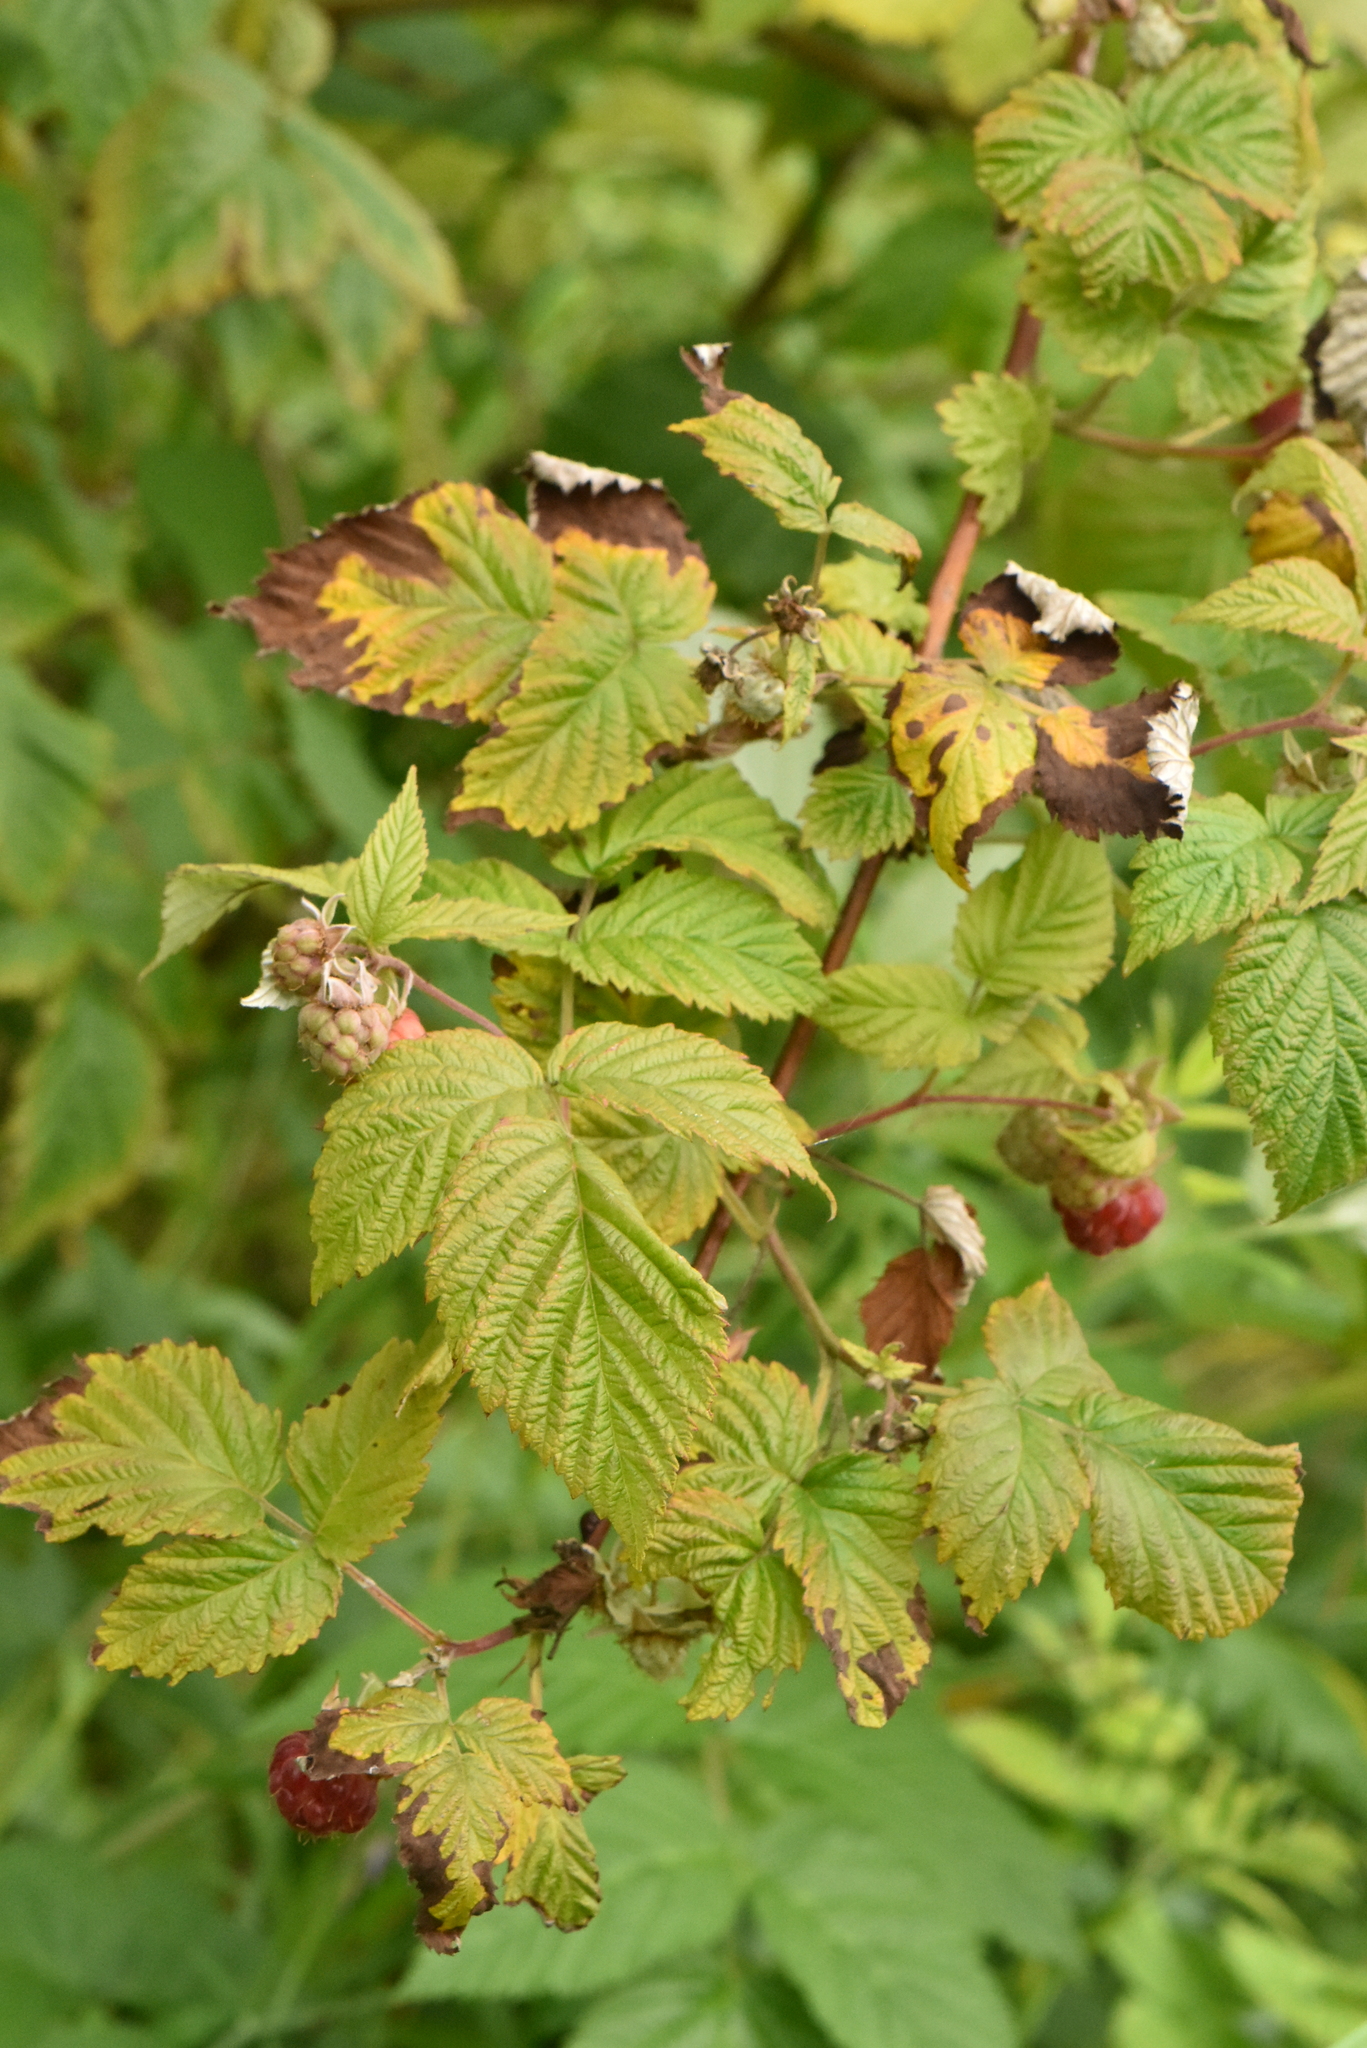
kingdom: Plantae
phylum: Tracheophyta
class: Magnoliopsida
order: Rosales
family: Rosaceae
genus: Rubus
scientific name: Rubus idaeus
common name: Raspberry
